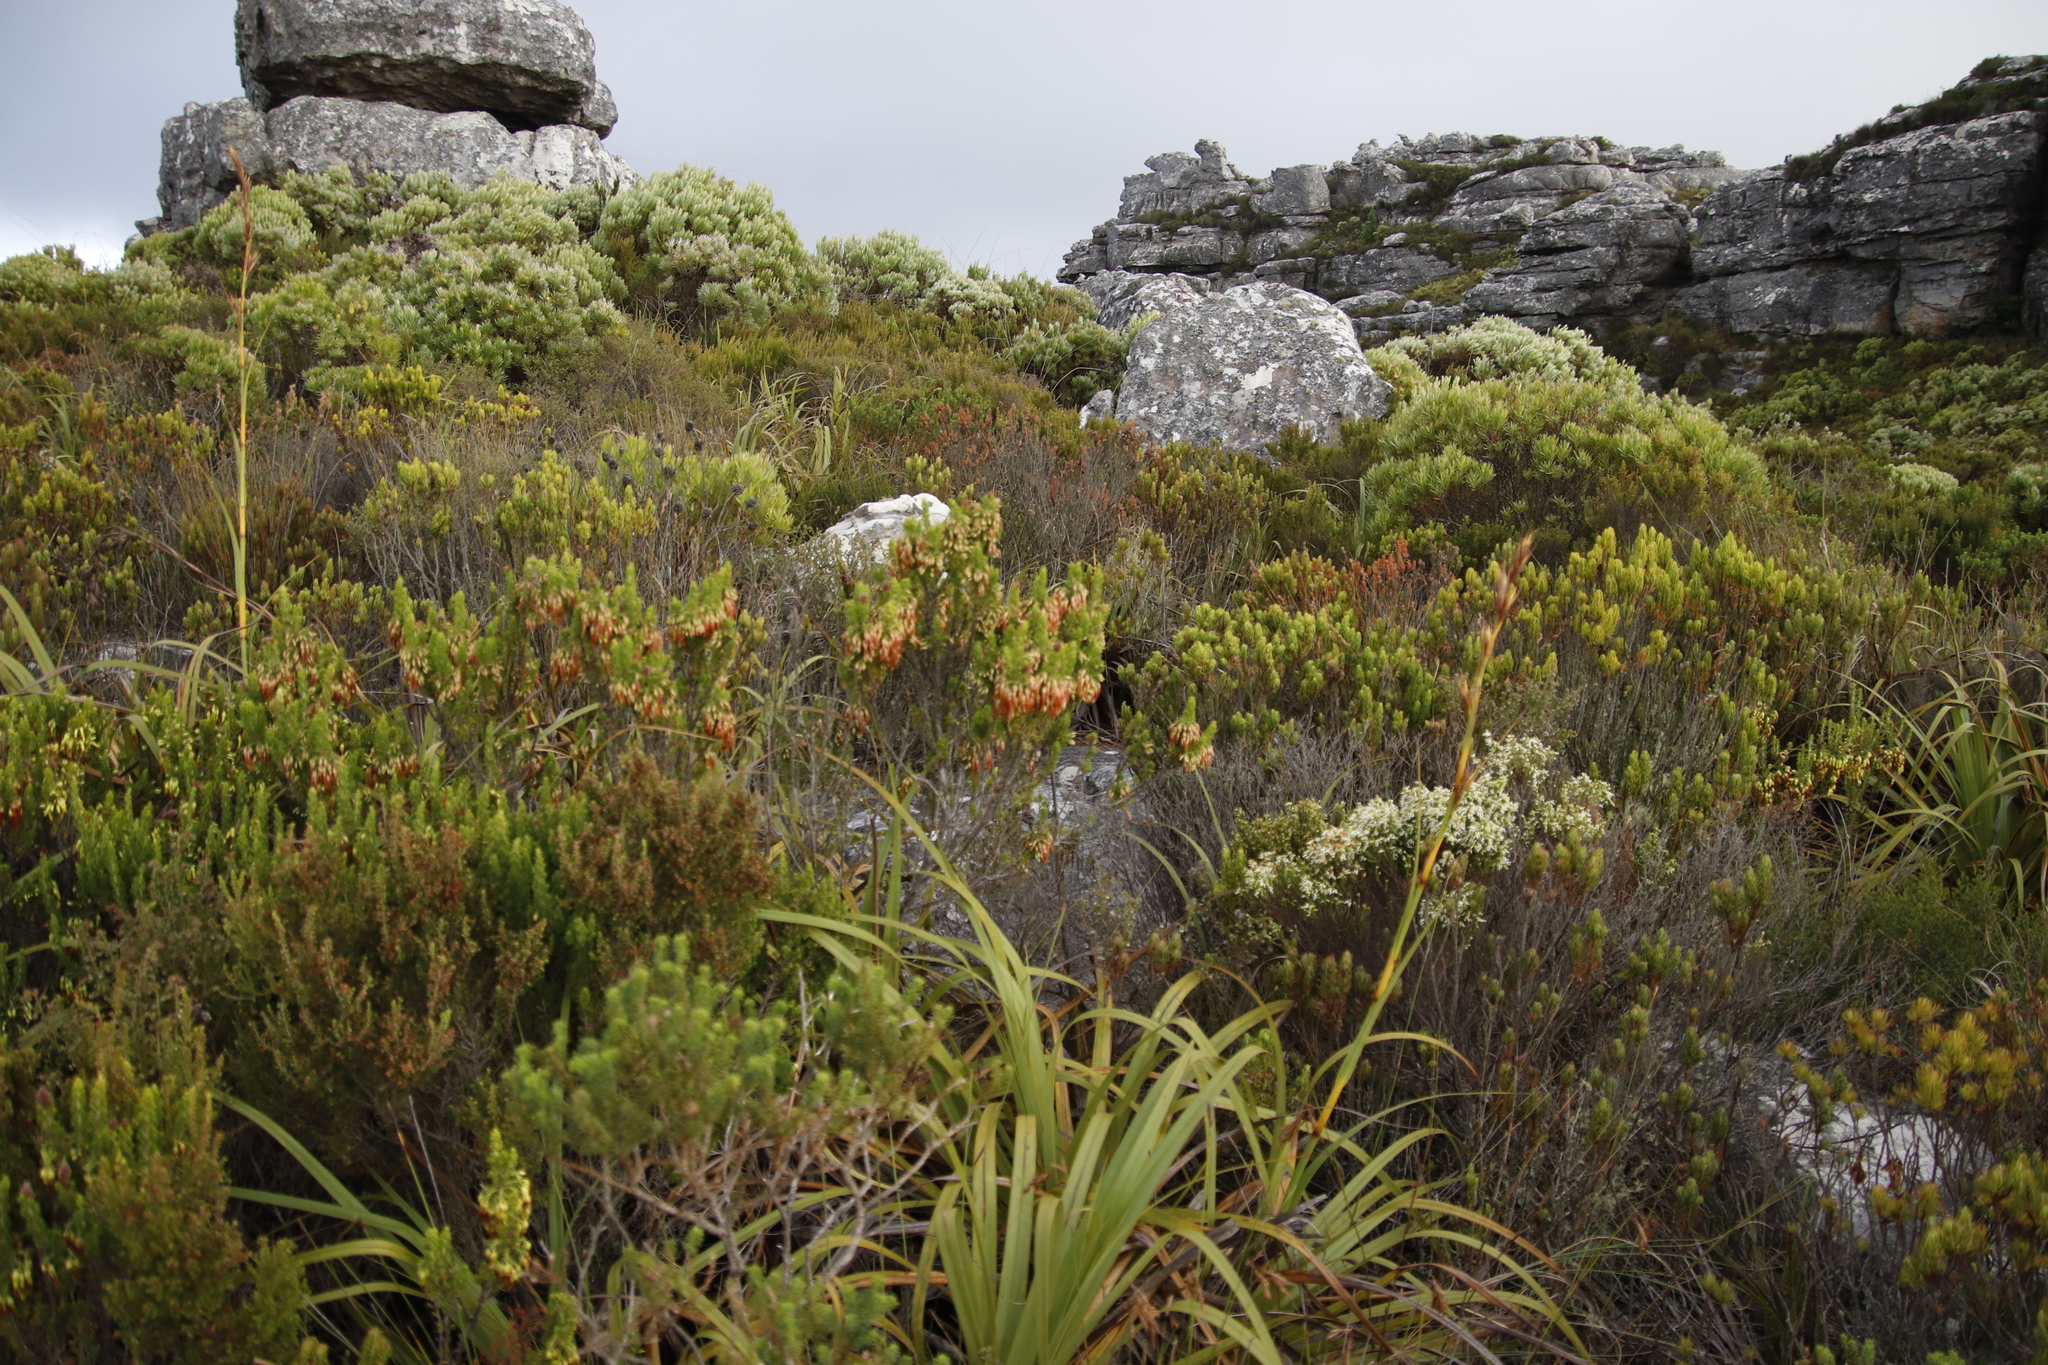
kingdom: Plantae
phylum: Tracheophyta
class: Magnoliopsida
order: Ericales
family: Ericaceae
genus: Erica
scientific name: Erica coccinea
